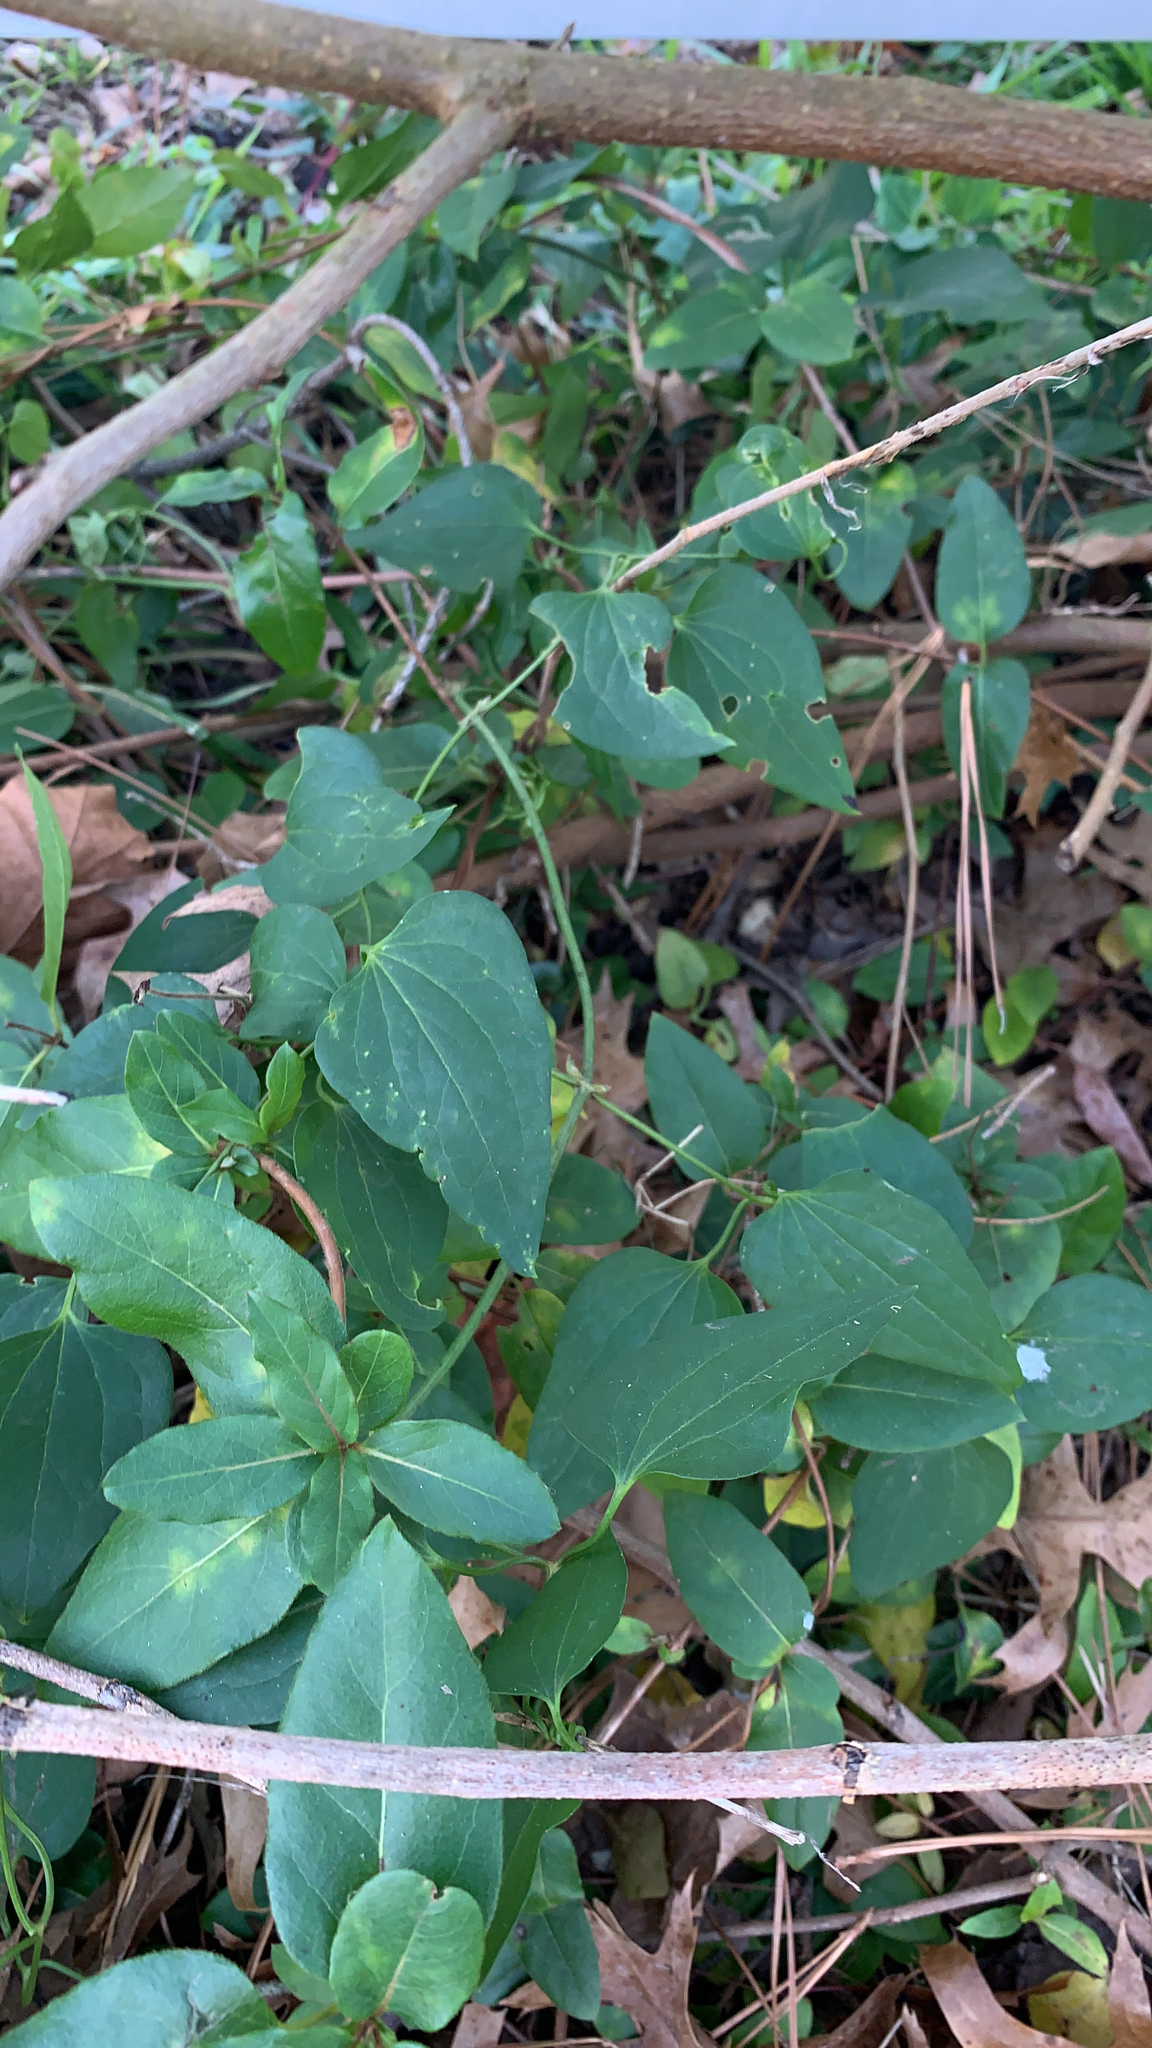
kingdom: Plantae
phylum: Tracheophyta
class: Magnoliopsida
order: Ranunculales
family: Ranunculaceae
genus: Clematis
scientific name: Clematis terniflora
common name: Sweet autumn clematis
